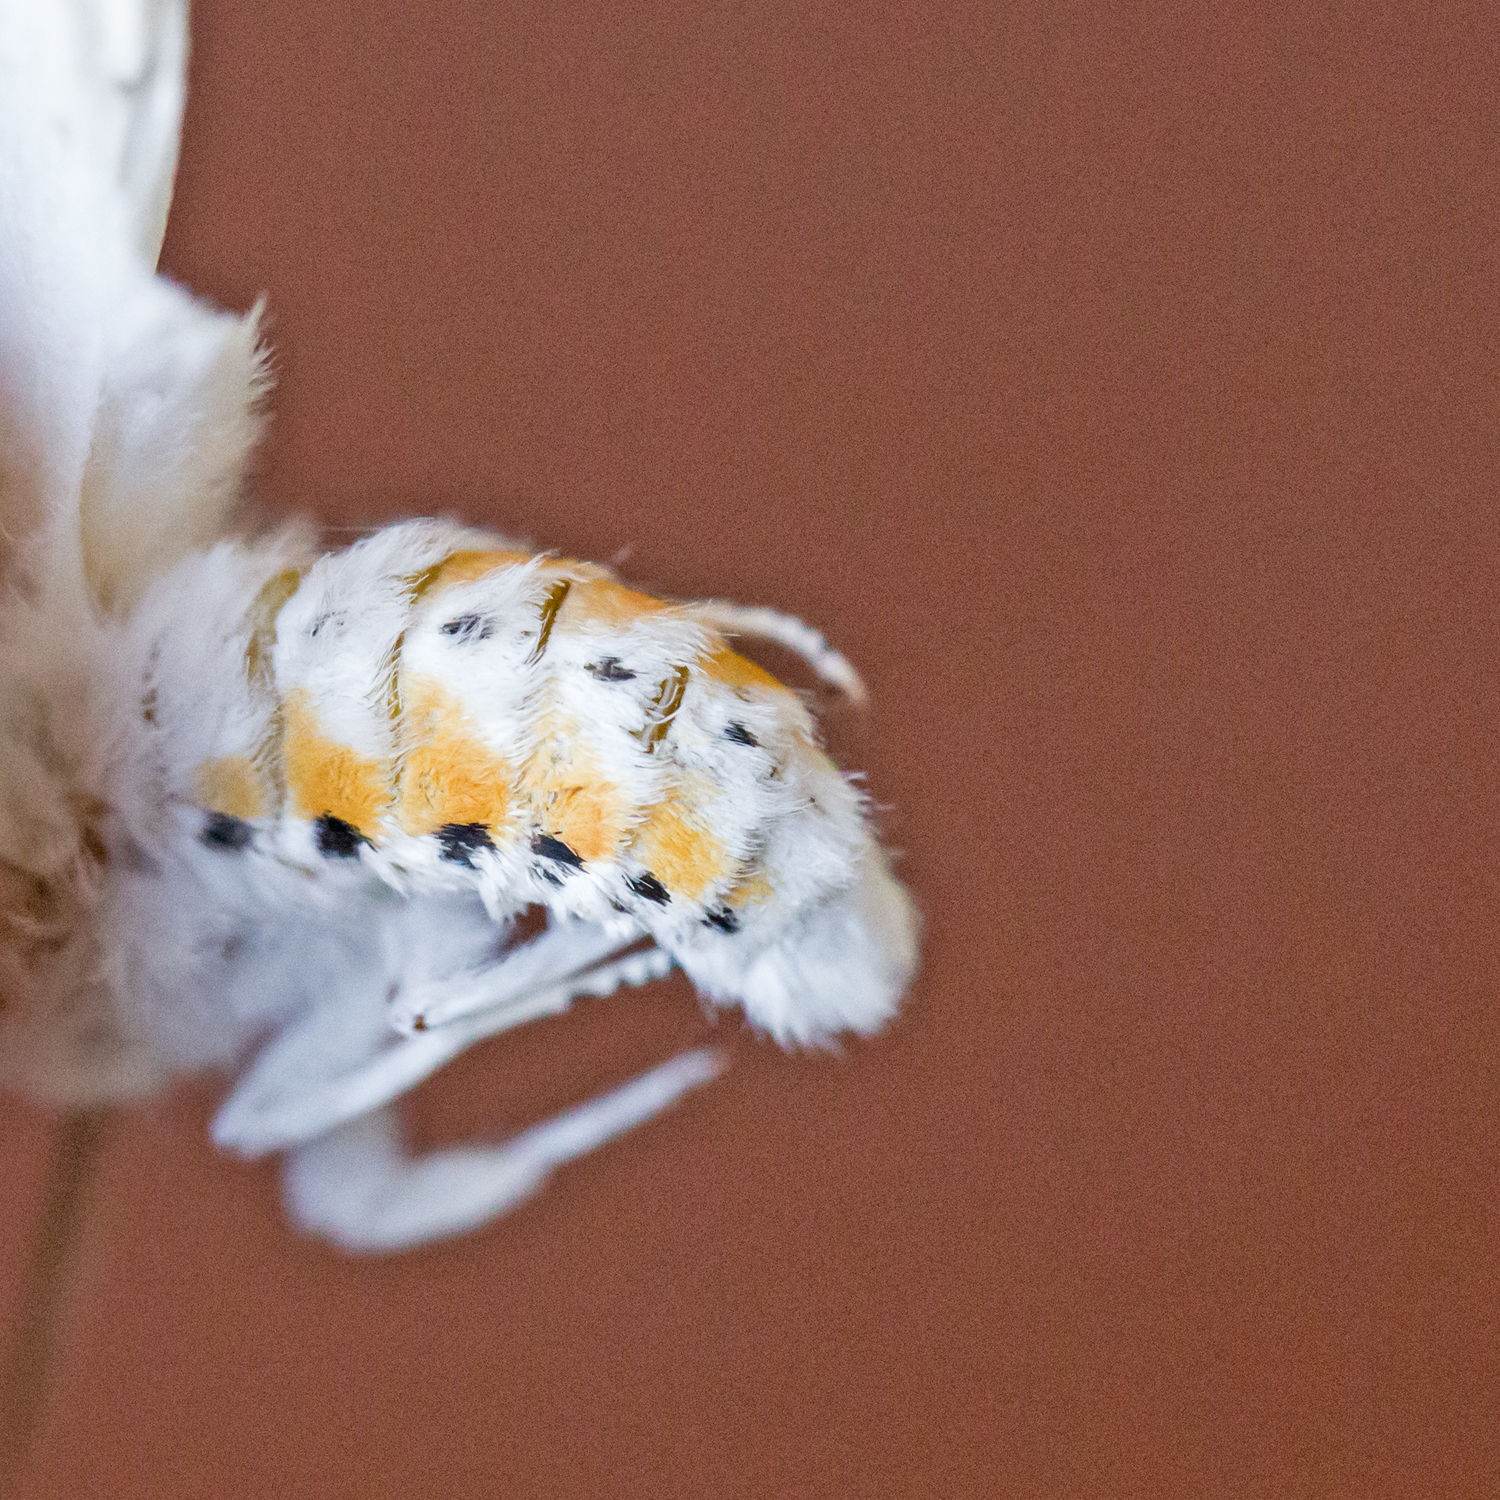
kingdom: Animalia
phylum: Arthropoda
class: Insecta
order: Lepidoptera
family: Erebidae
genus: Spilosoma
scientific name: Spilosoma virginica
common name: Virginia tiger moth
